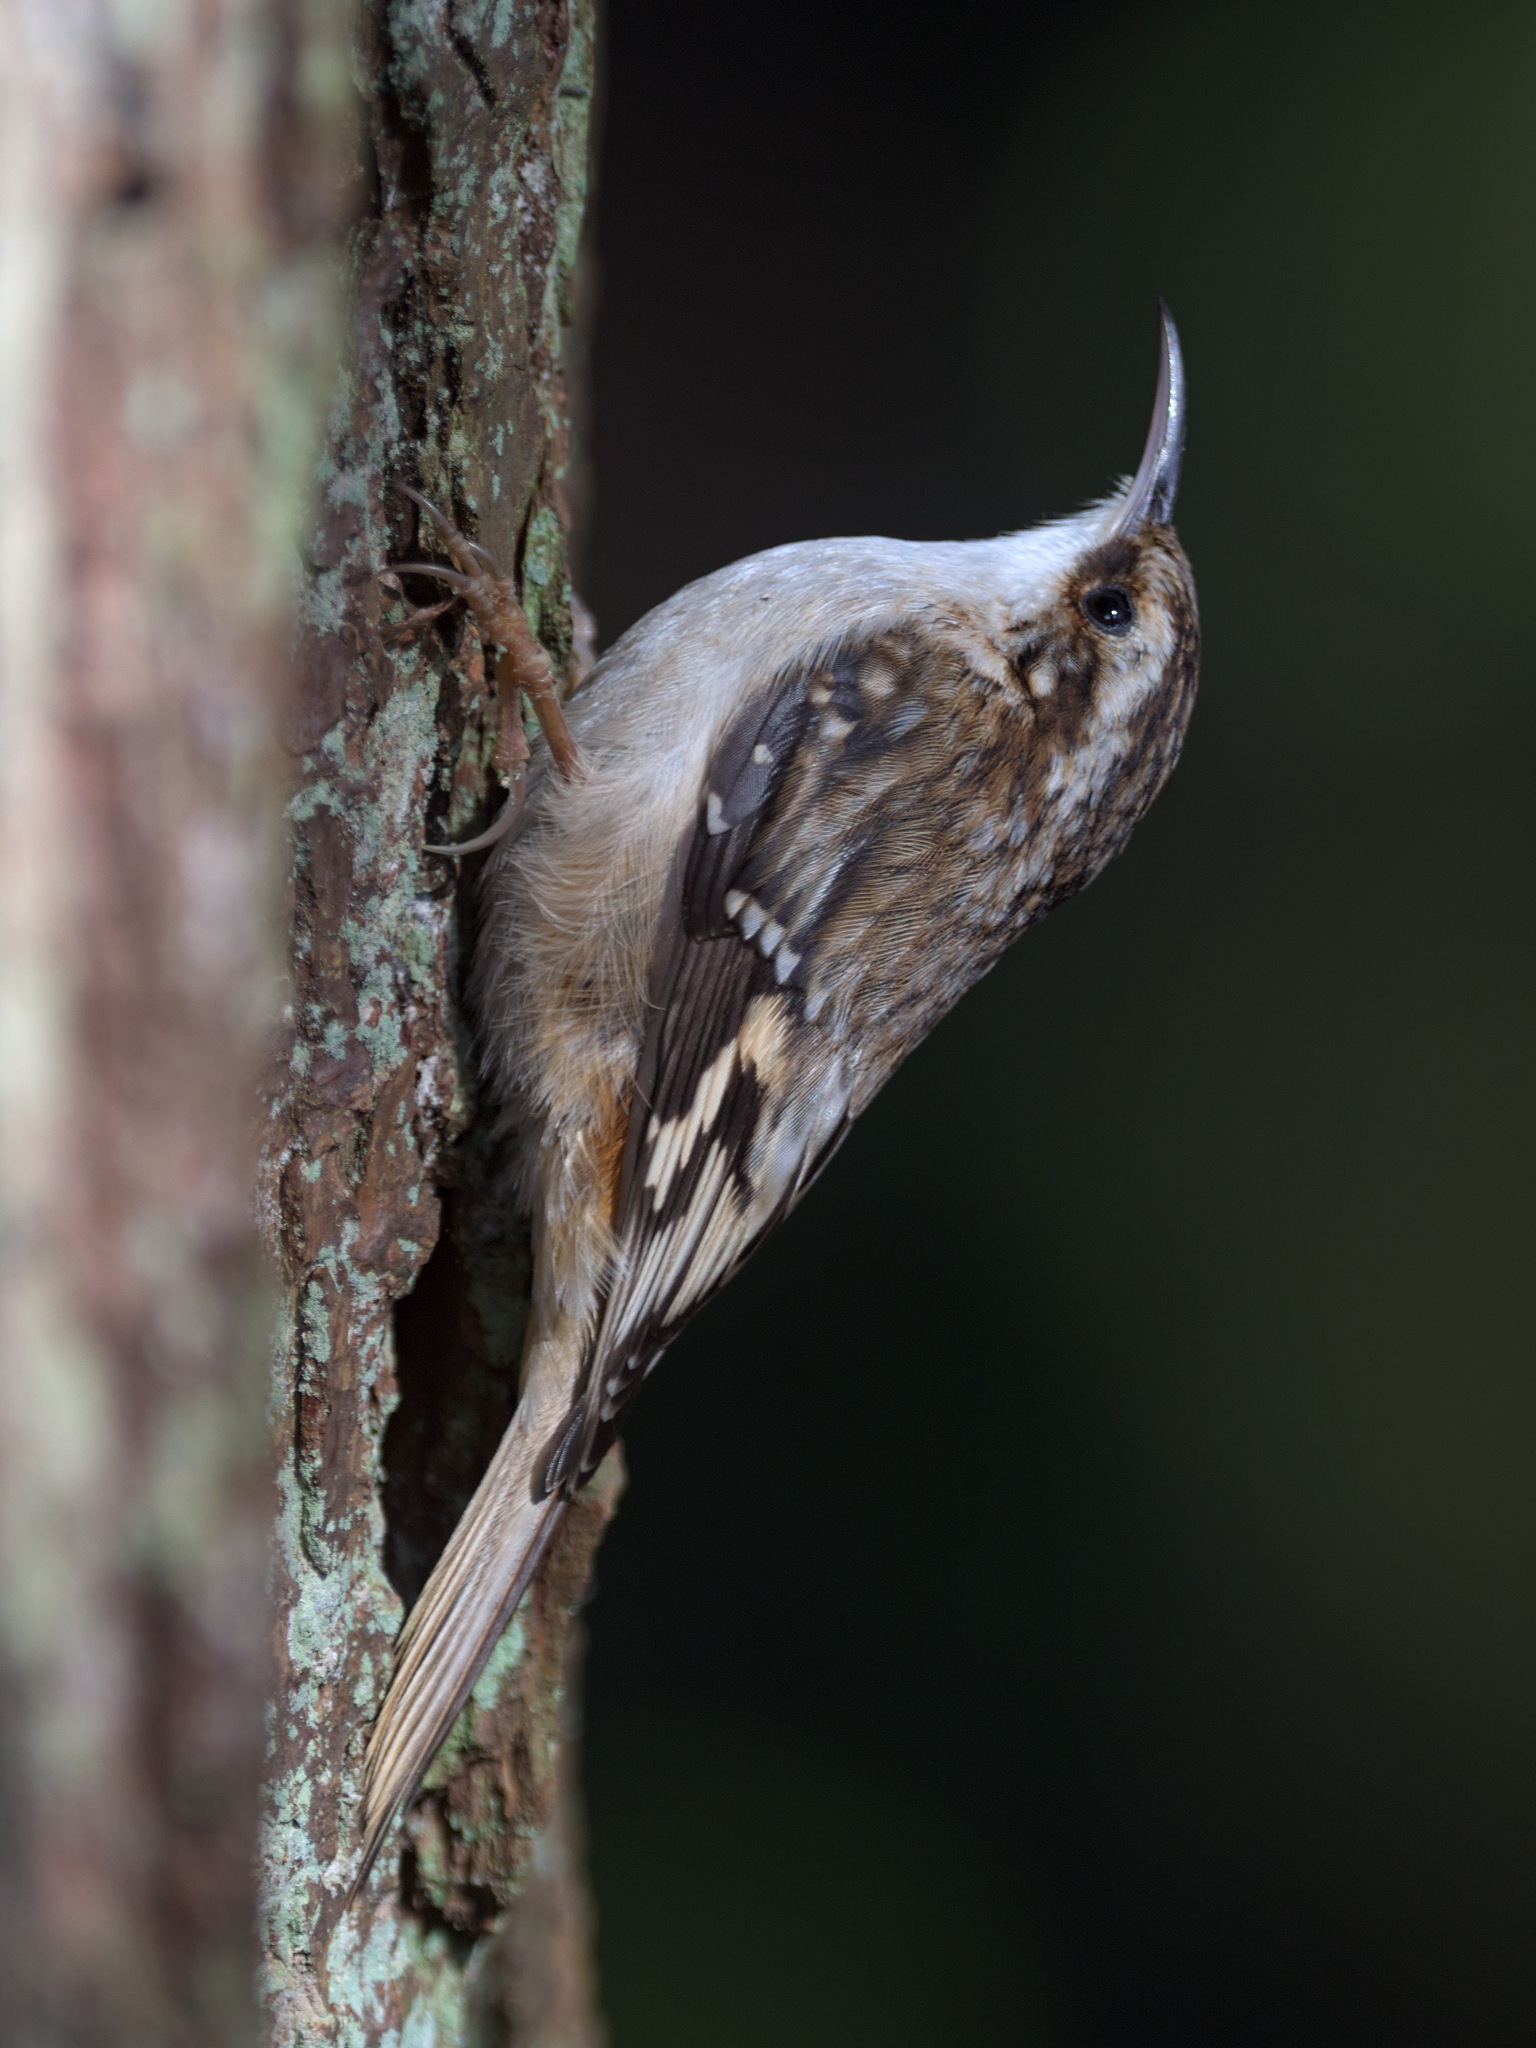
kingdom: Animalia
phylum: Chordata
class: Aves
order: Passeriformes
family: Certhiidae
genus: Certhia
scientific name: Certhia americana
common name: Brown creeper
